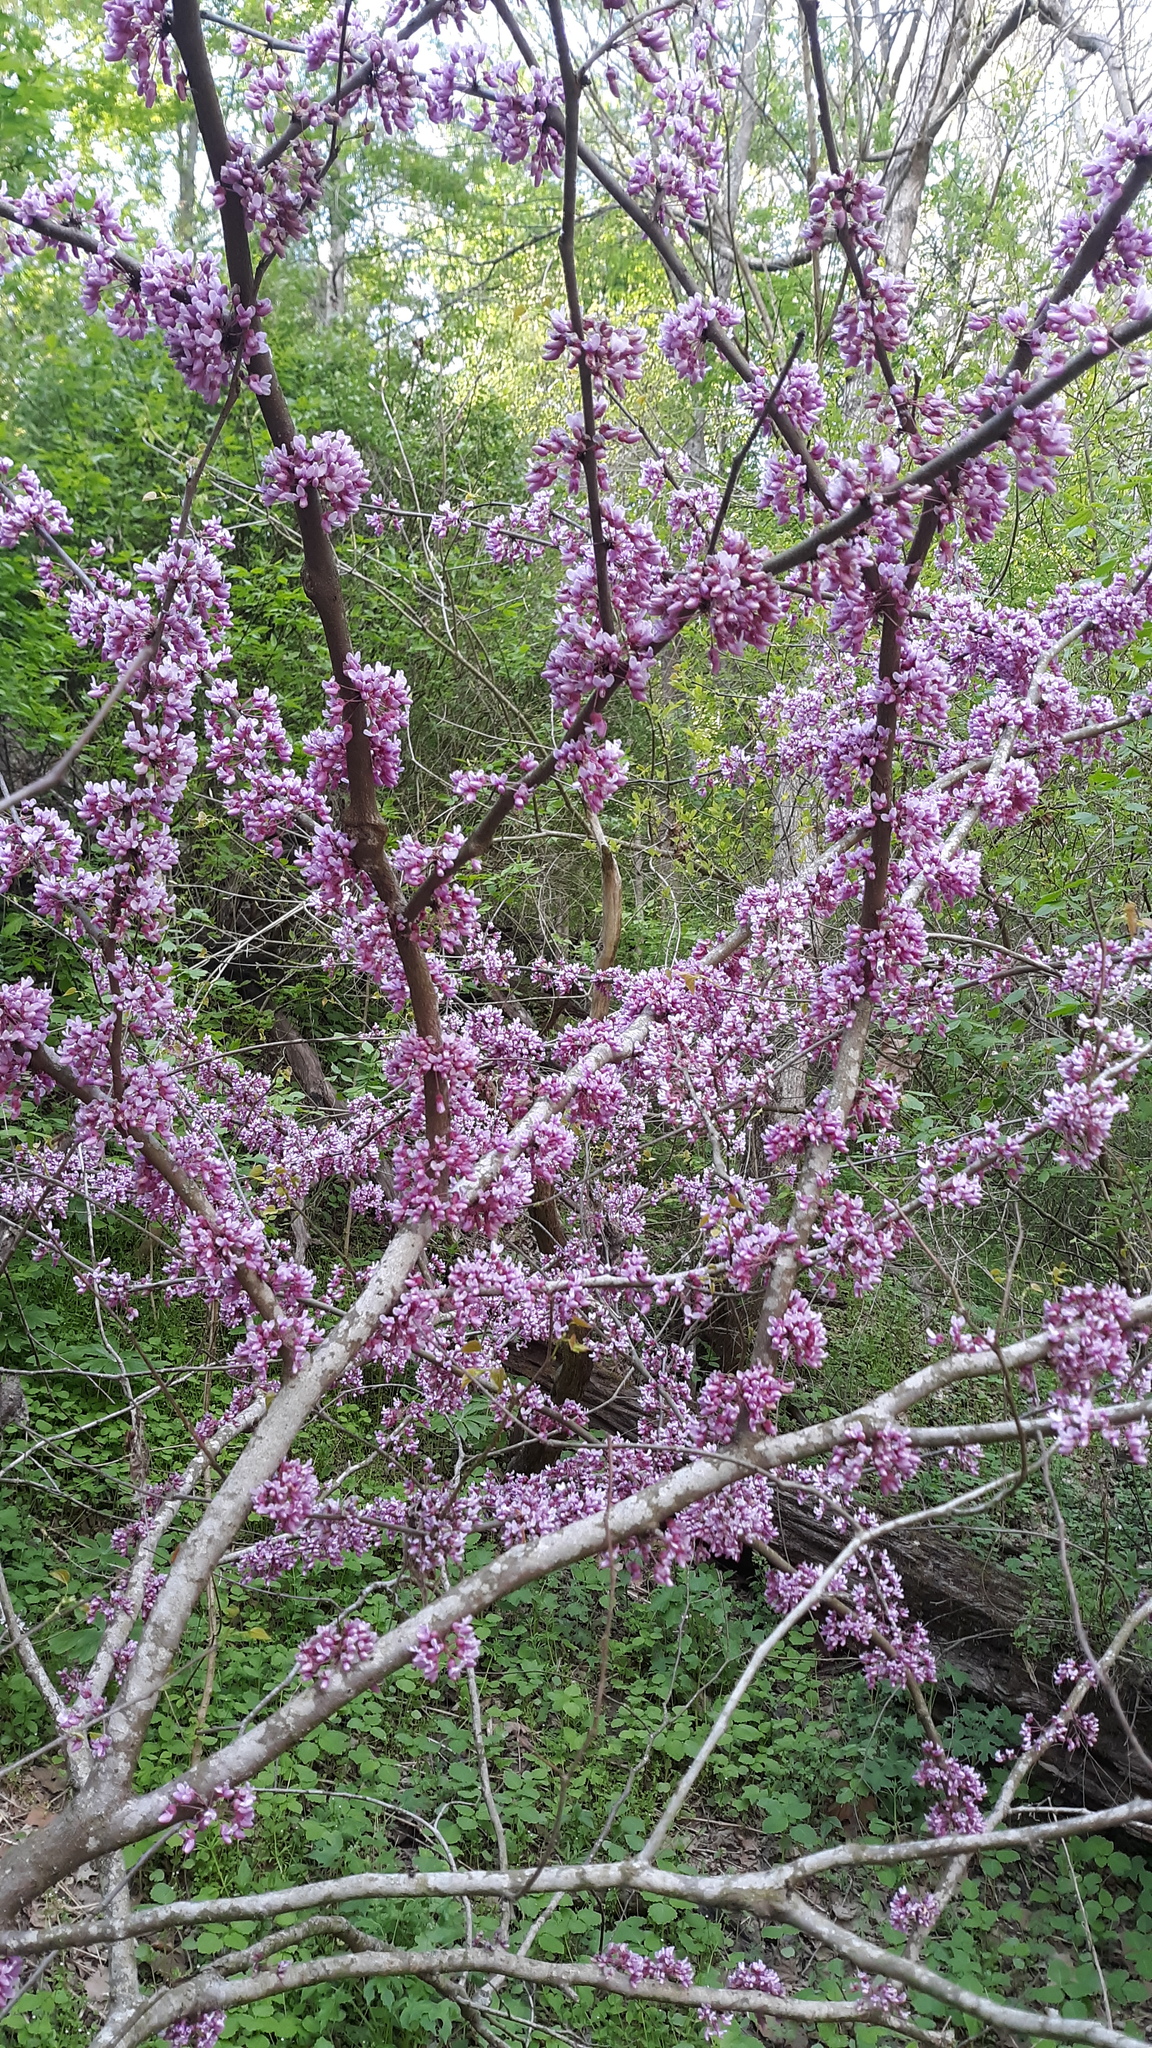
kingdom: Plantae
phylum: Tracheophyta
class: Magnoliopsida
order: Fabales
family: Fabaceae
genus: Cercis
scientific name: Cercis canadensis
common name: Eastern redbud
